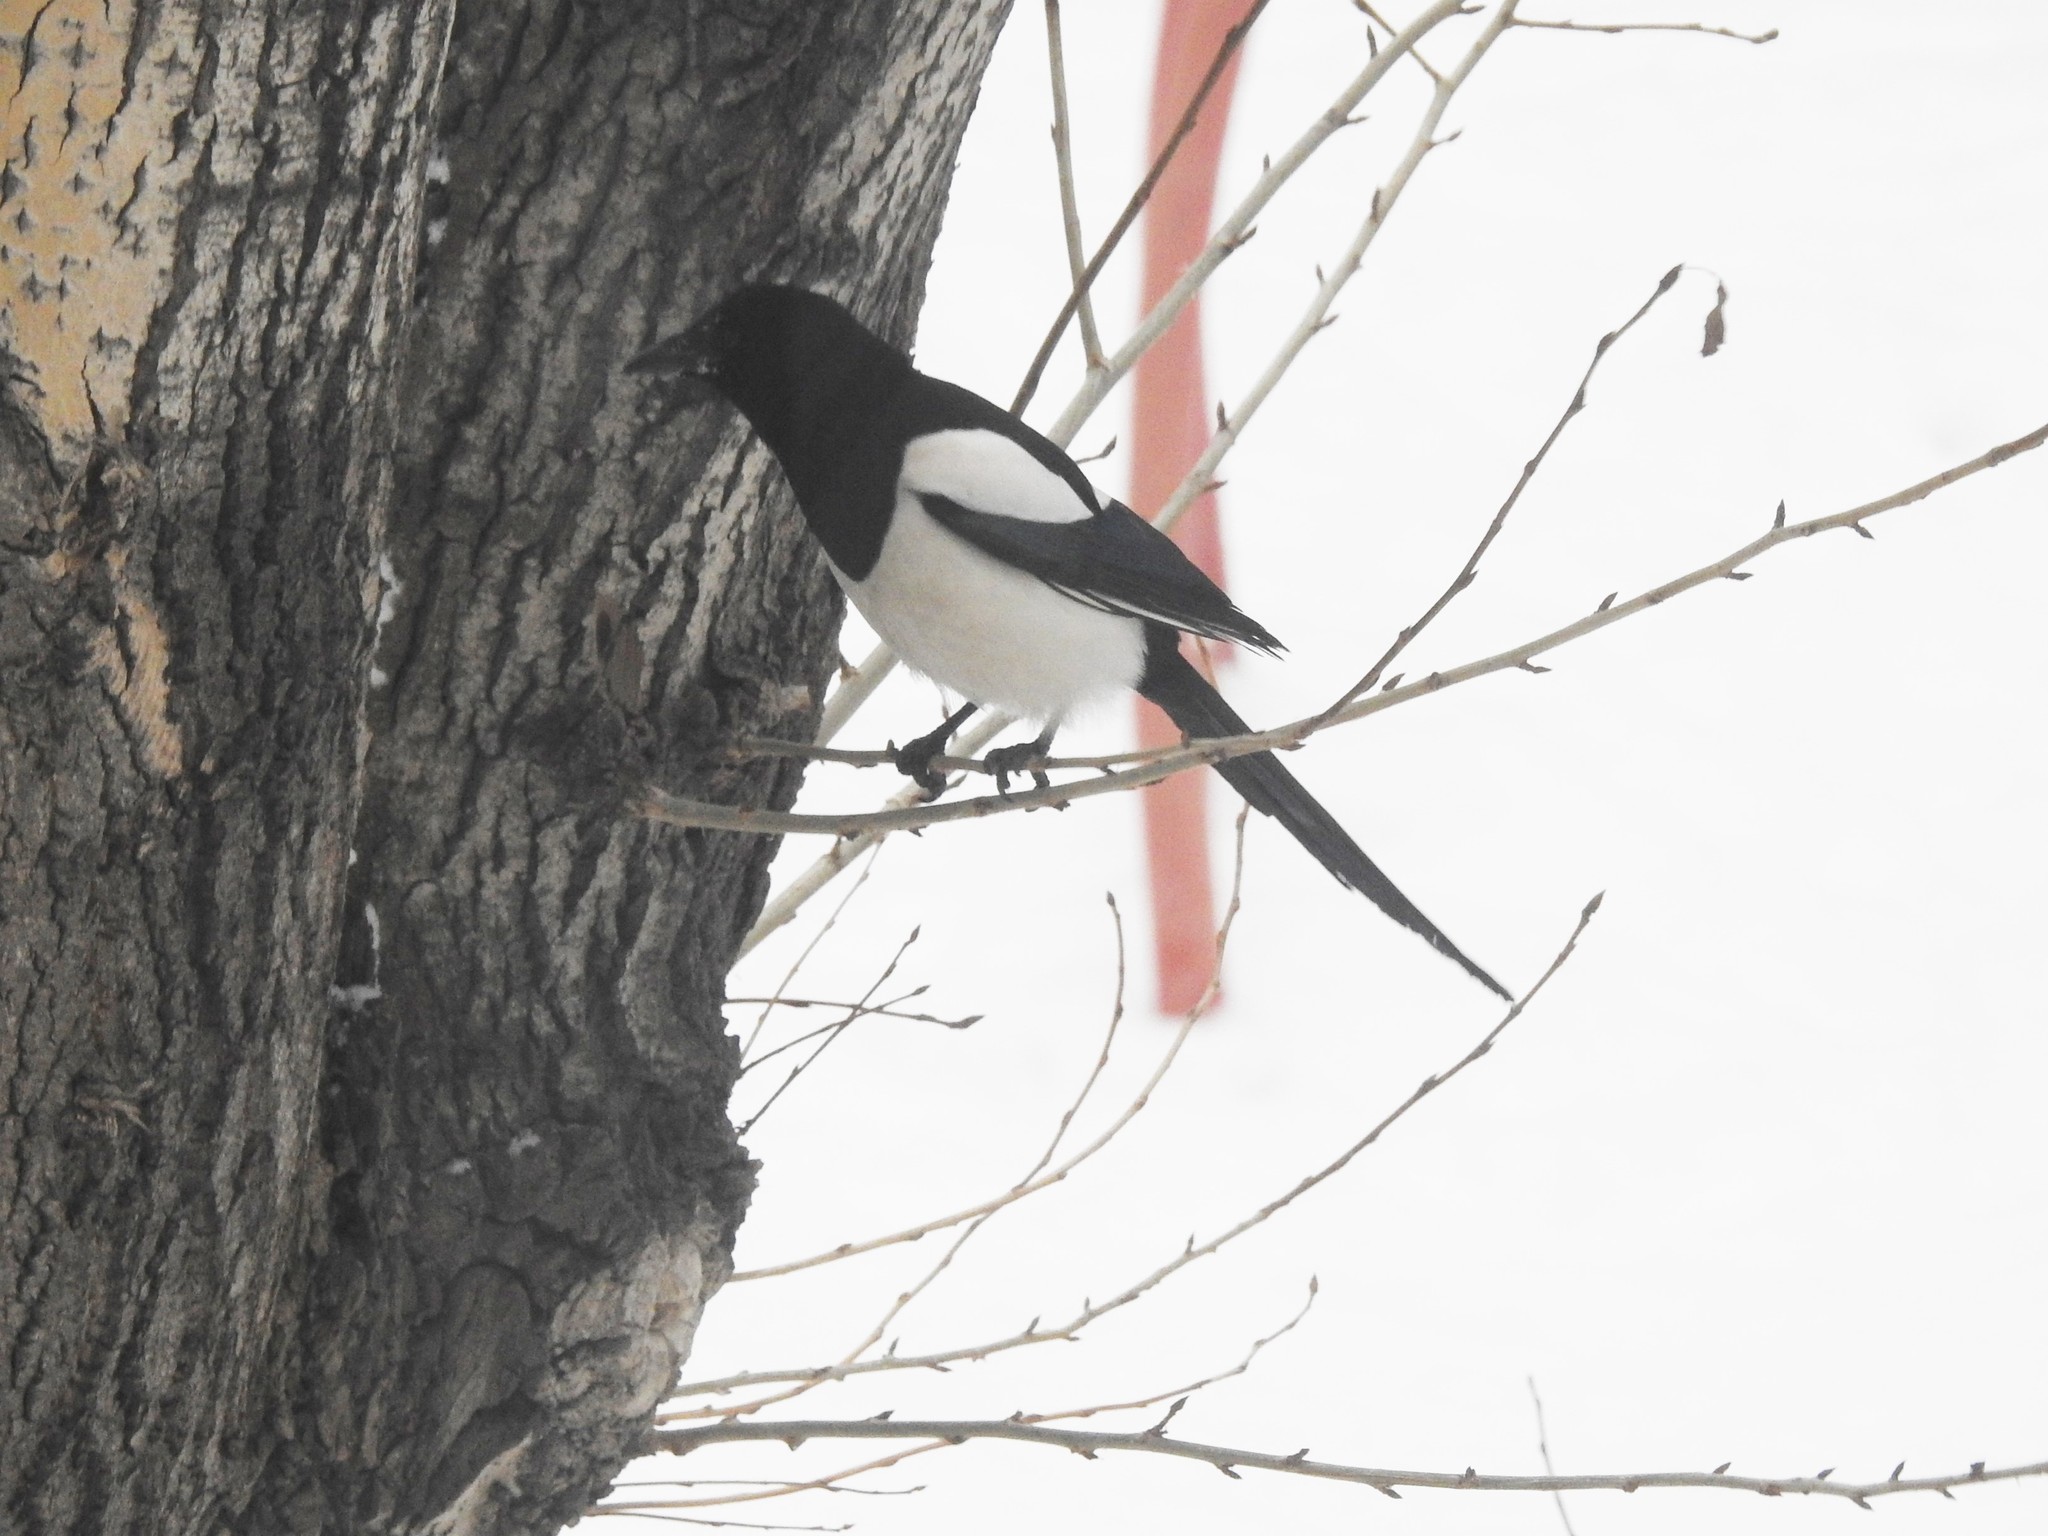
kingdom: Animalia
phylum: Chordata
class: Aves
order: Passeriformes
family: Corvidae
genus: Pica
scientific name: Pica pica
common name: Eurasian magpie
